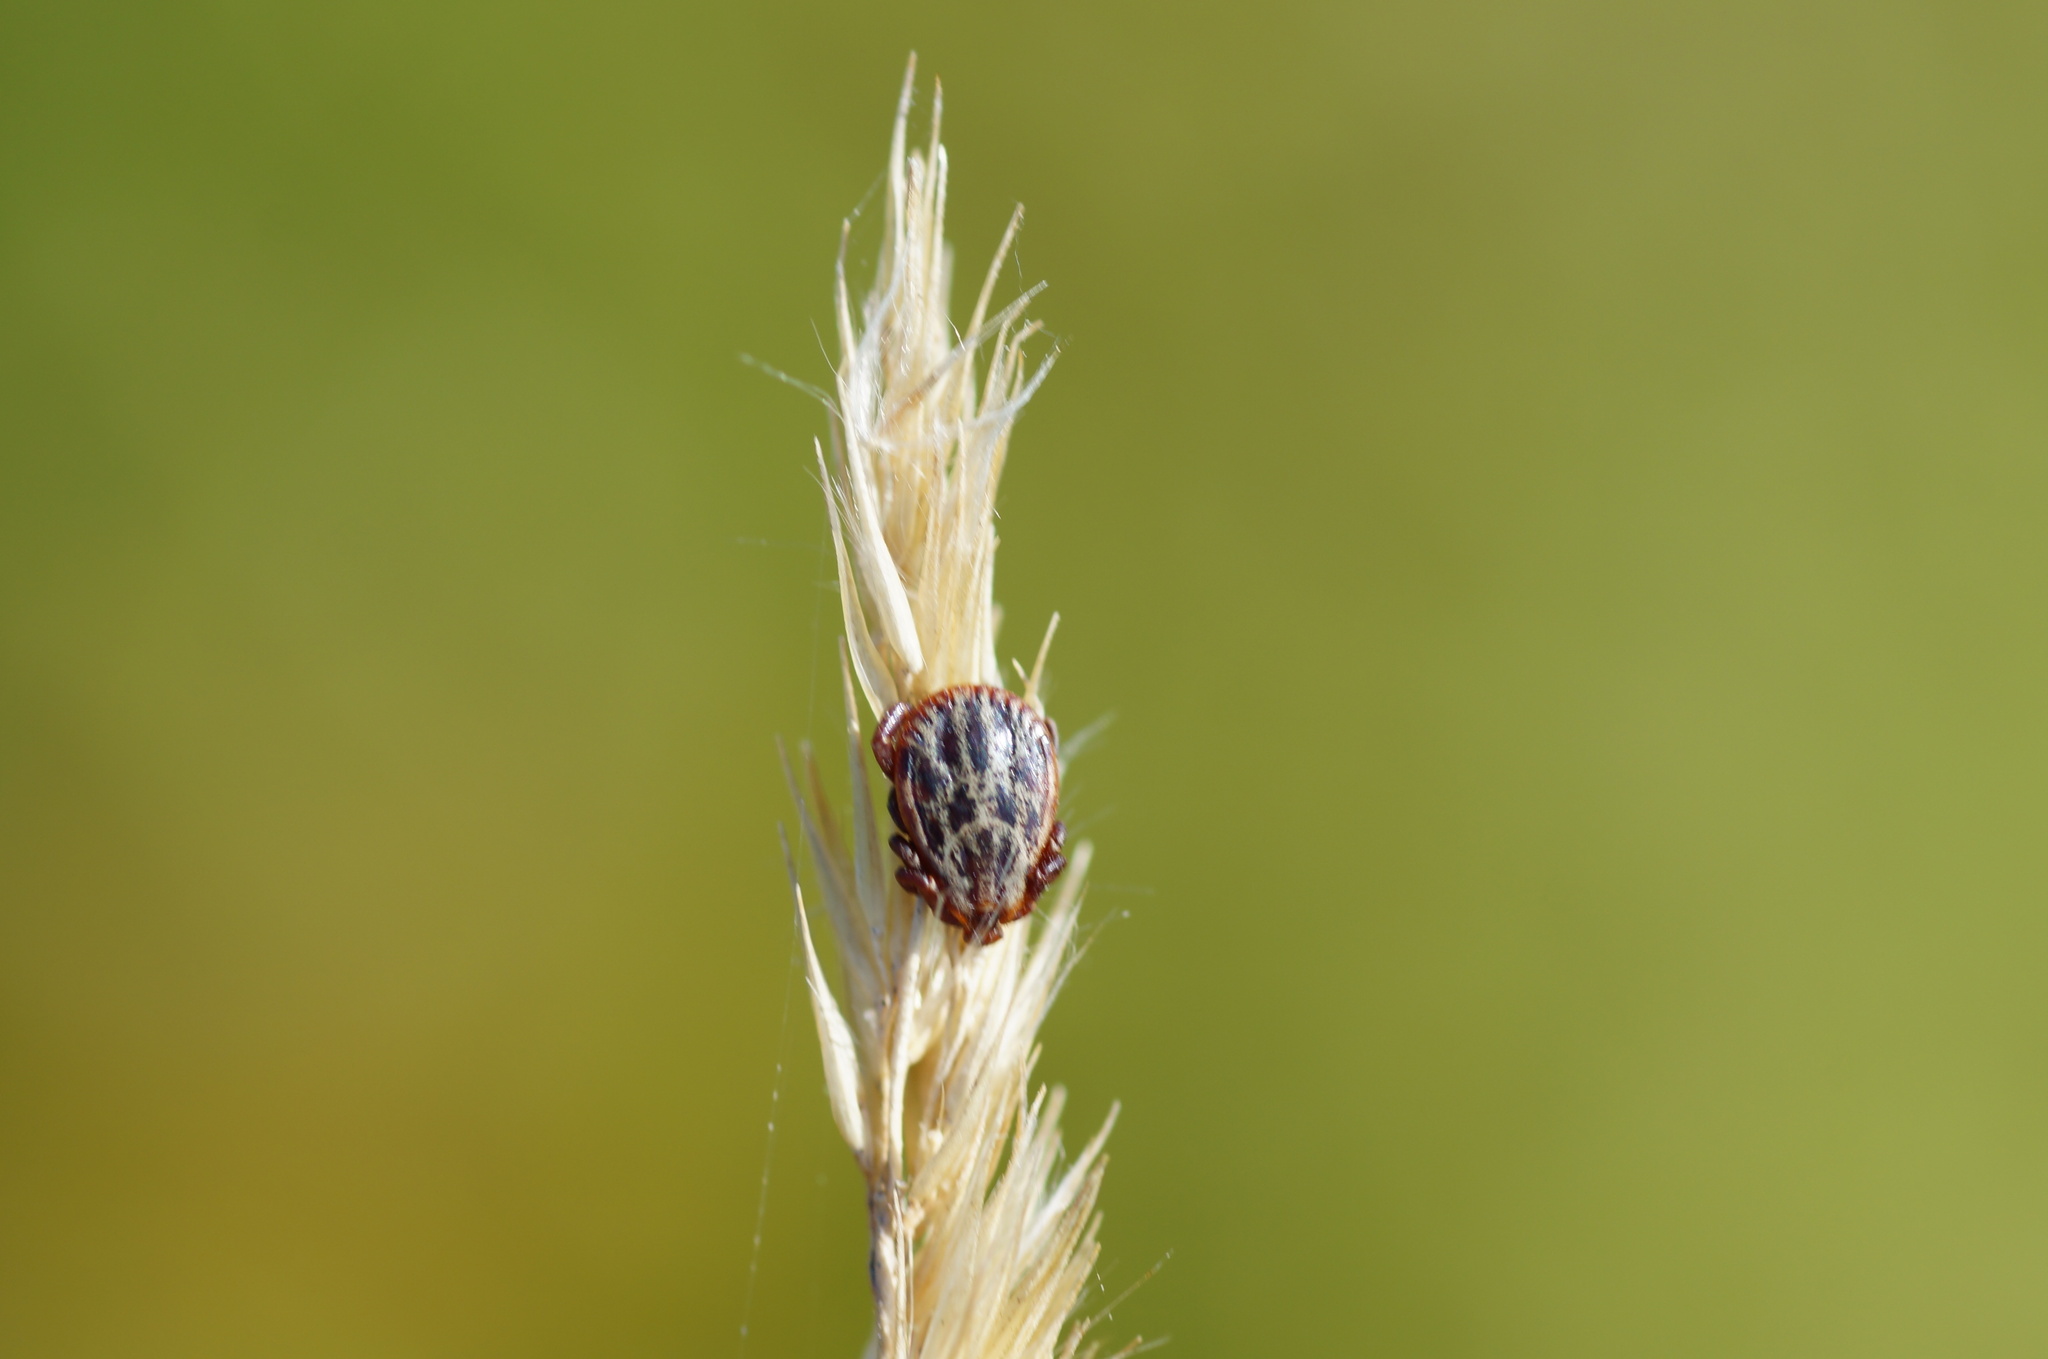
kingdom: Animalia
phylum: Arthropoda
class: Arachnida
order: Ixodida
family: Ixodidae
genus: Dermacentor
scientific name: Dermacentor reticulatus
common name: Ornate cow tick
